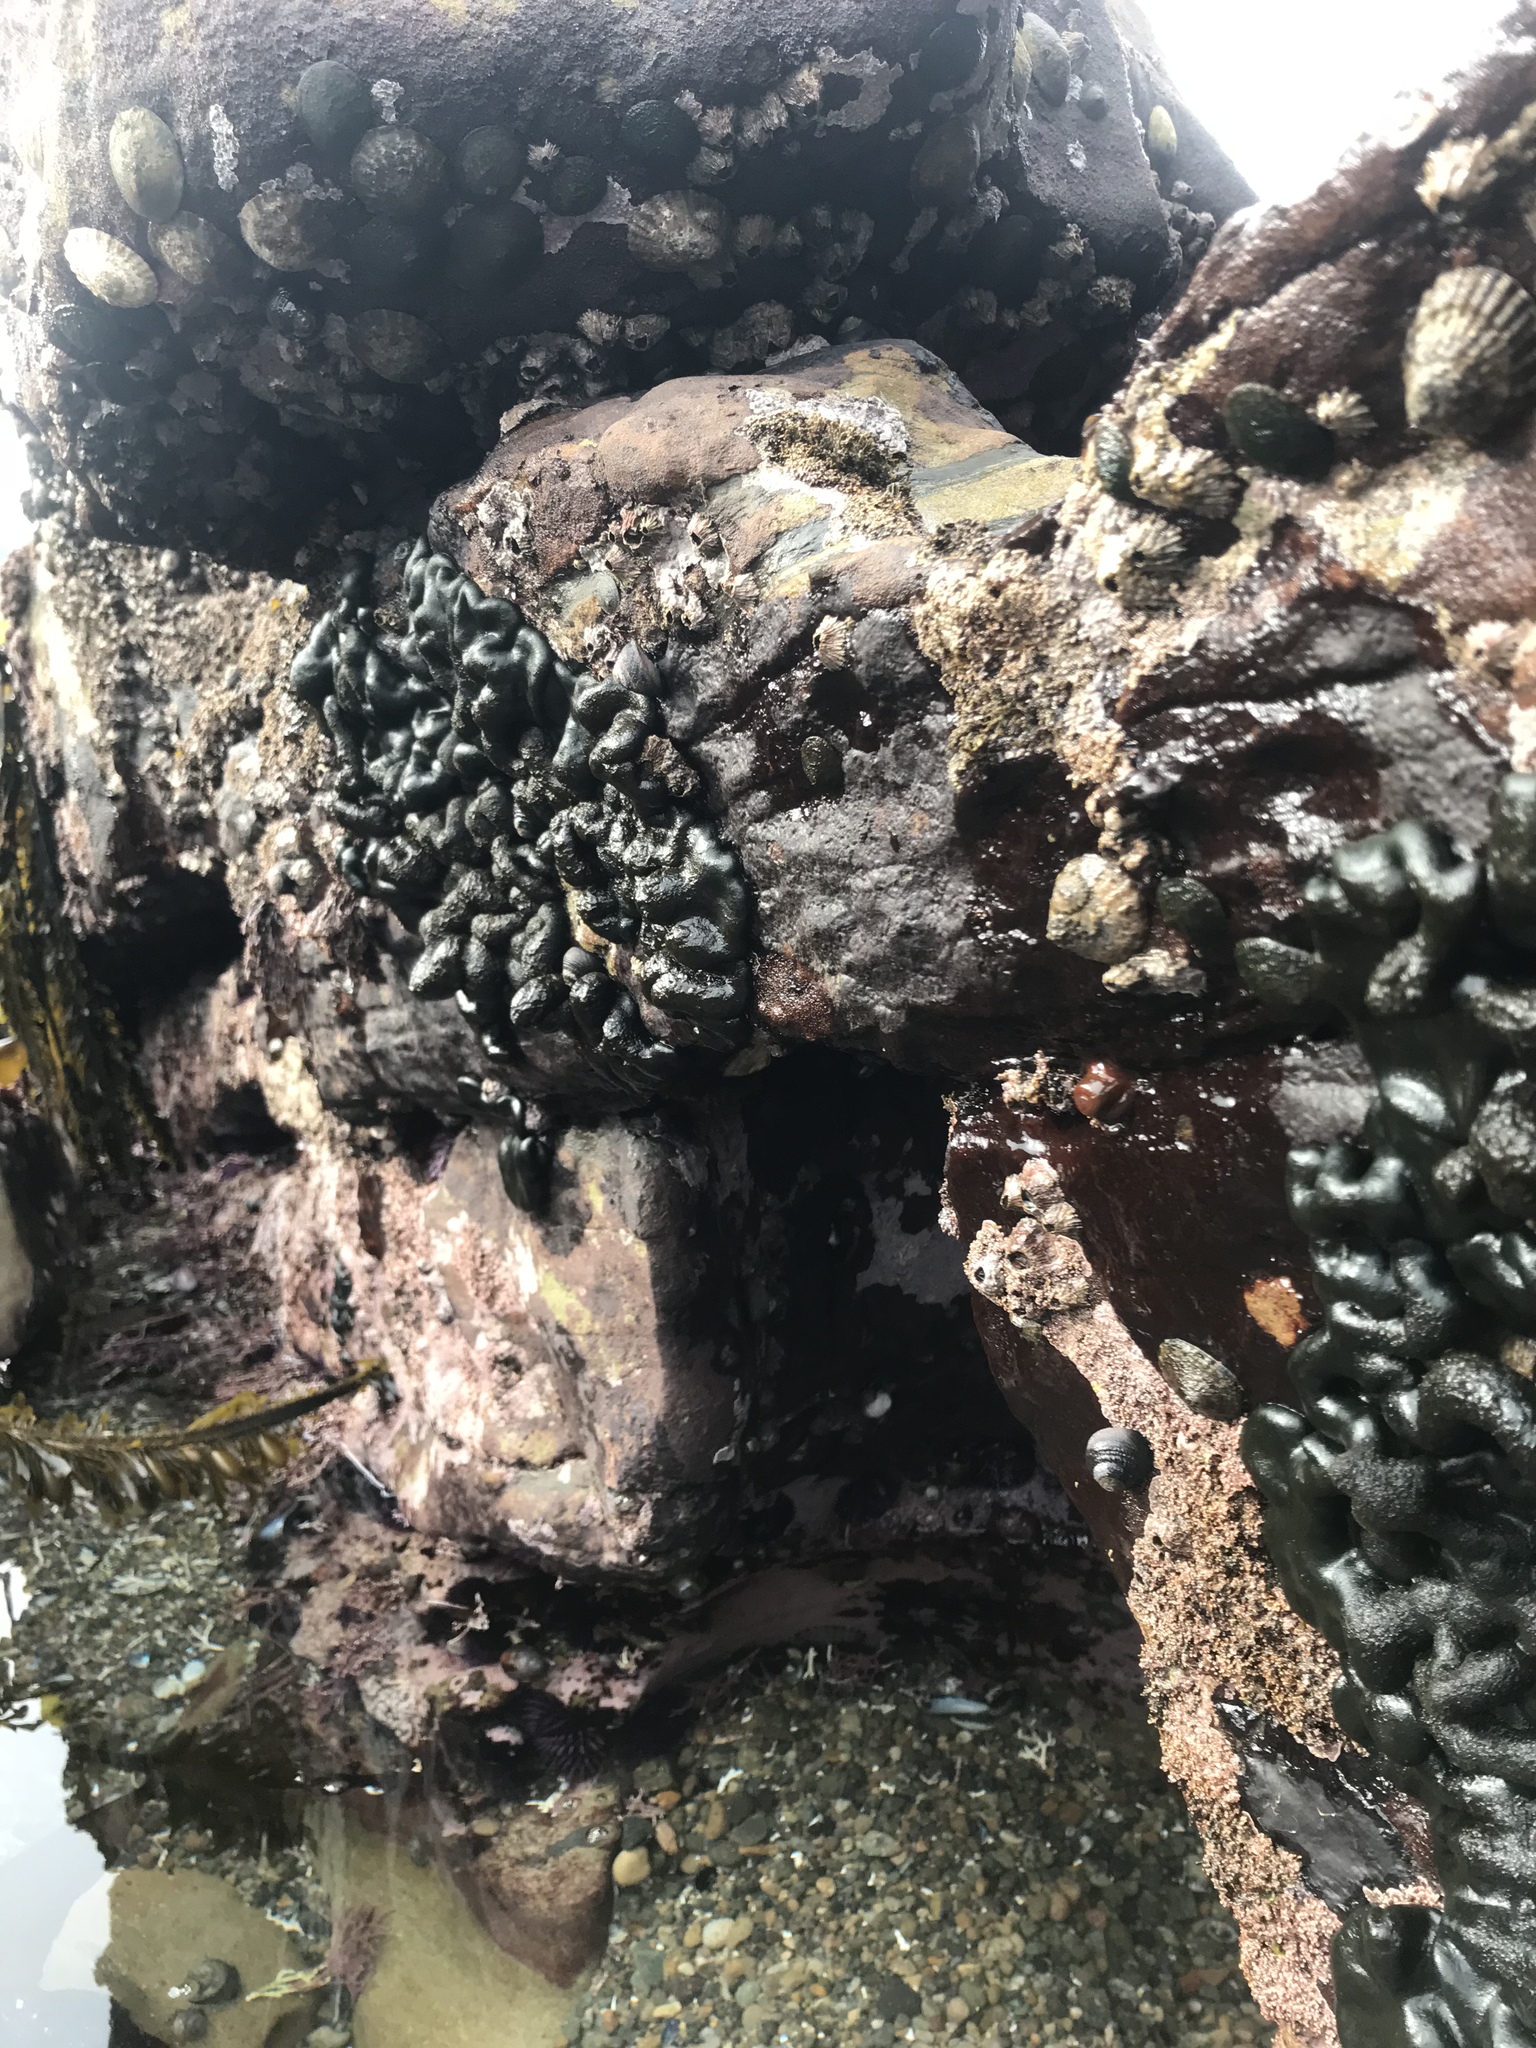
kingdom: Plantae
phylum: Chlorophyta
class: Ulvophyceae
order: Bryopsidales
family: Codiaceae
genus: Codium
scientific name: Codium setchellii
